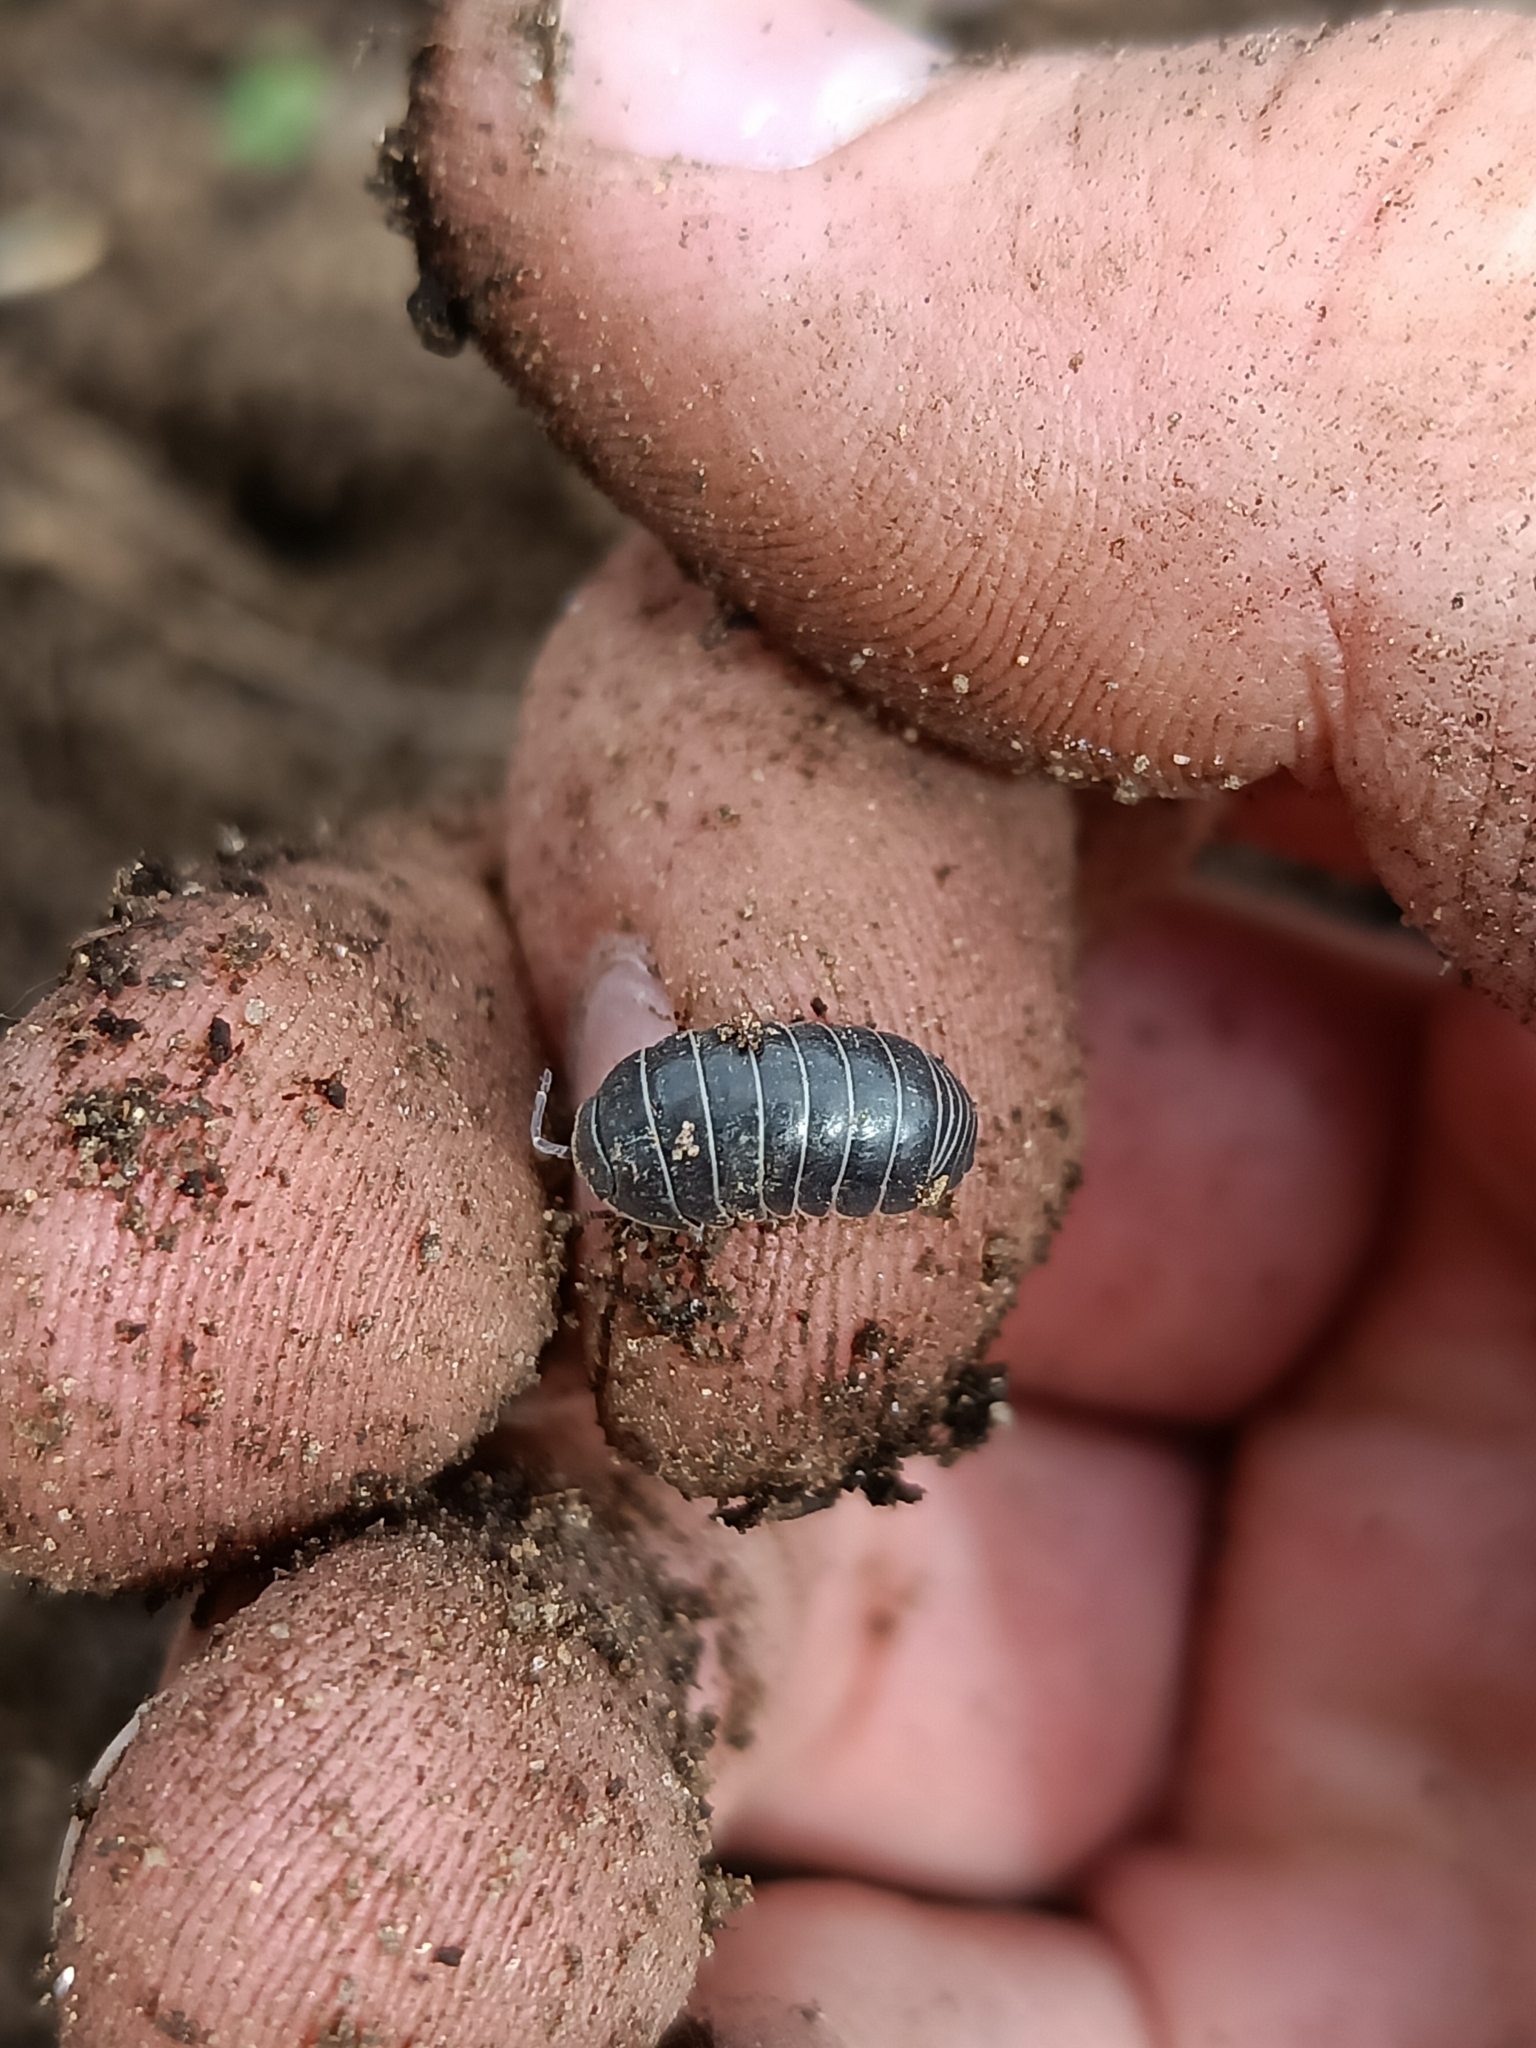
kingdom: Animalia
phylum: Arthropoda
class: Malacostraca
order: Isopoda
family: Armadillidiidae
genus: Armadillidium
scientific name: Armadillidium vulgare
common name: Common pill woodlouse
